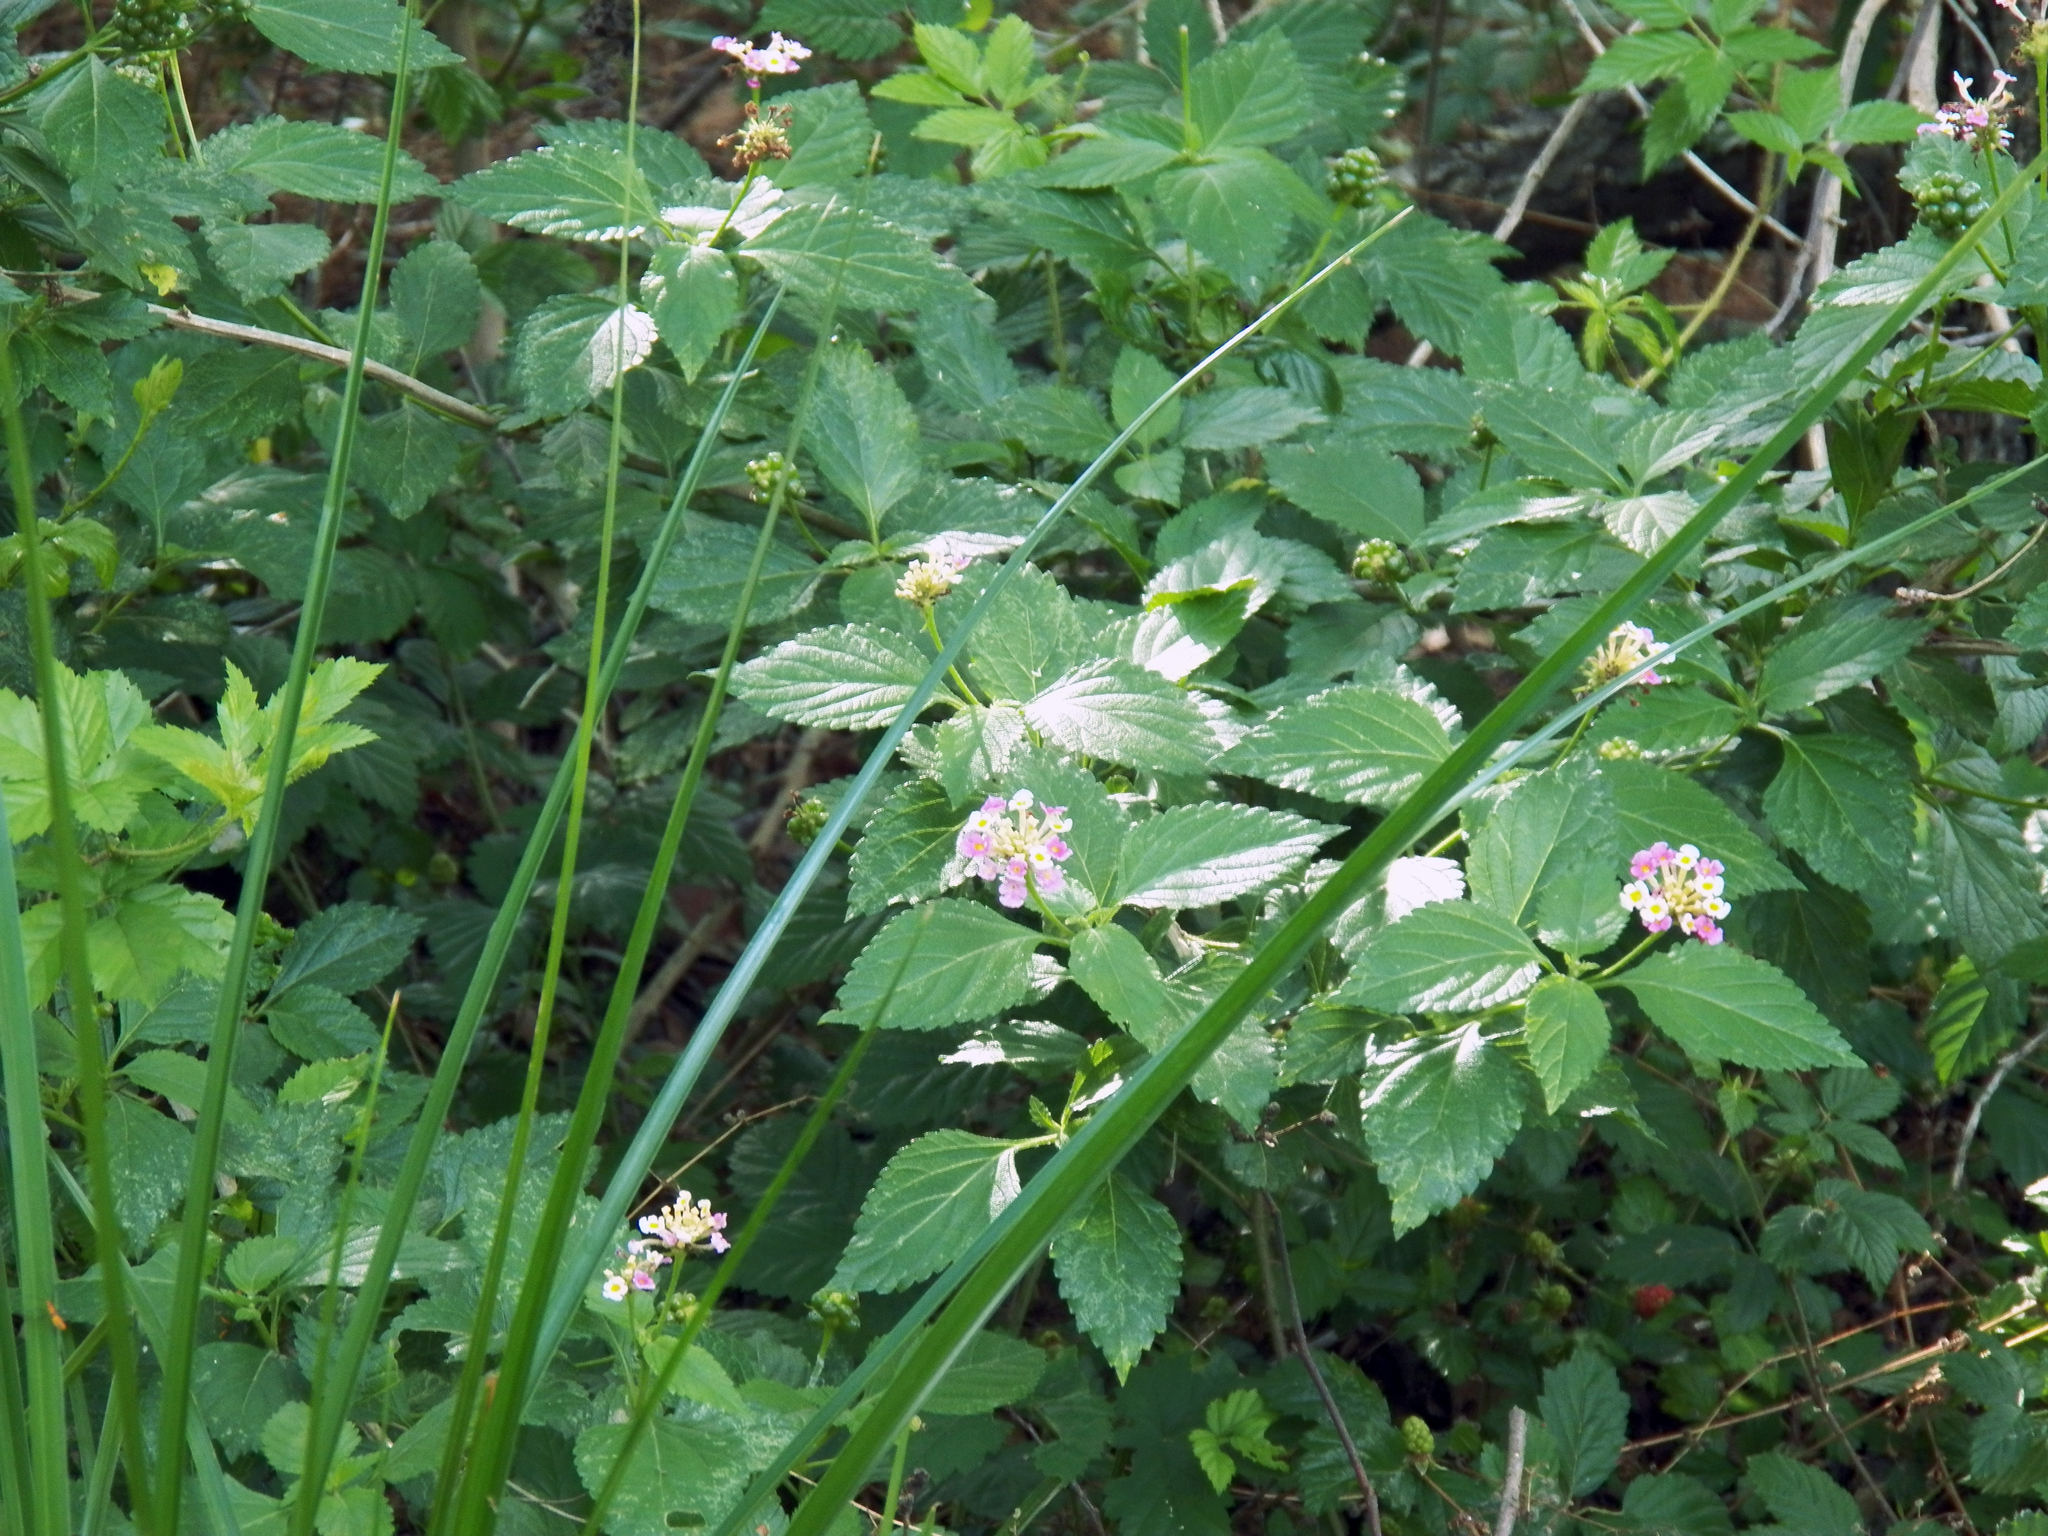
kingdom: Plantae
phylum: Tracheophyta
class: Magnoliopsida
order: Lamiales
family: Verbenaceae
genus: Lantana
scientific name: Lantana strigocamara
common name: Lantana
